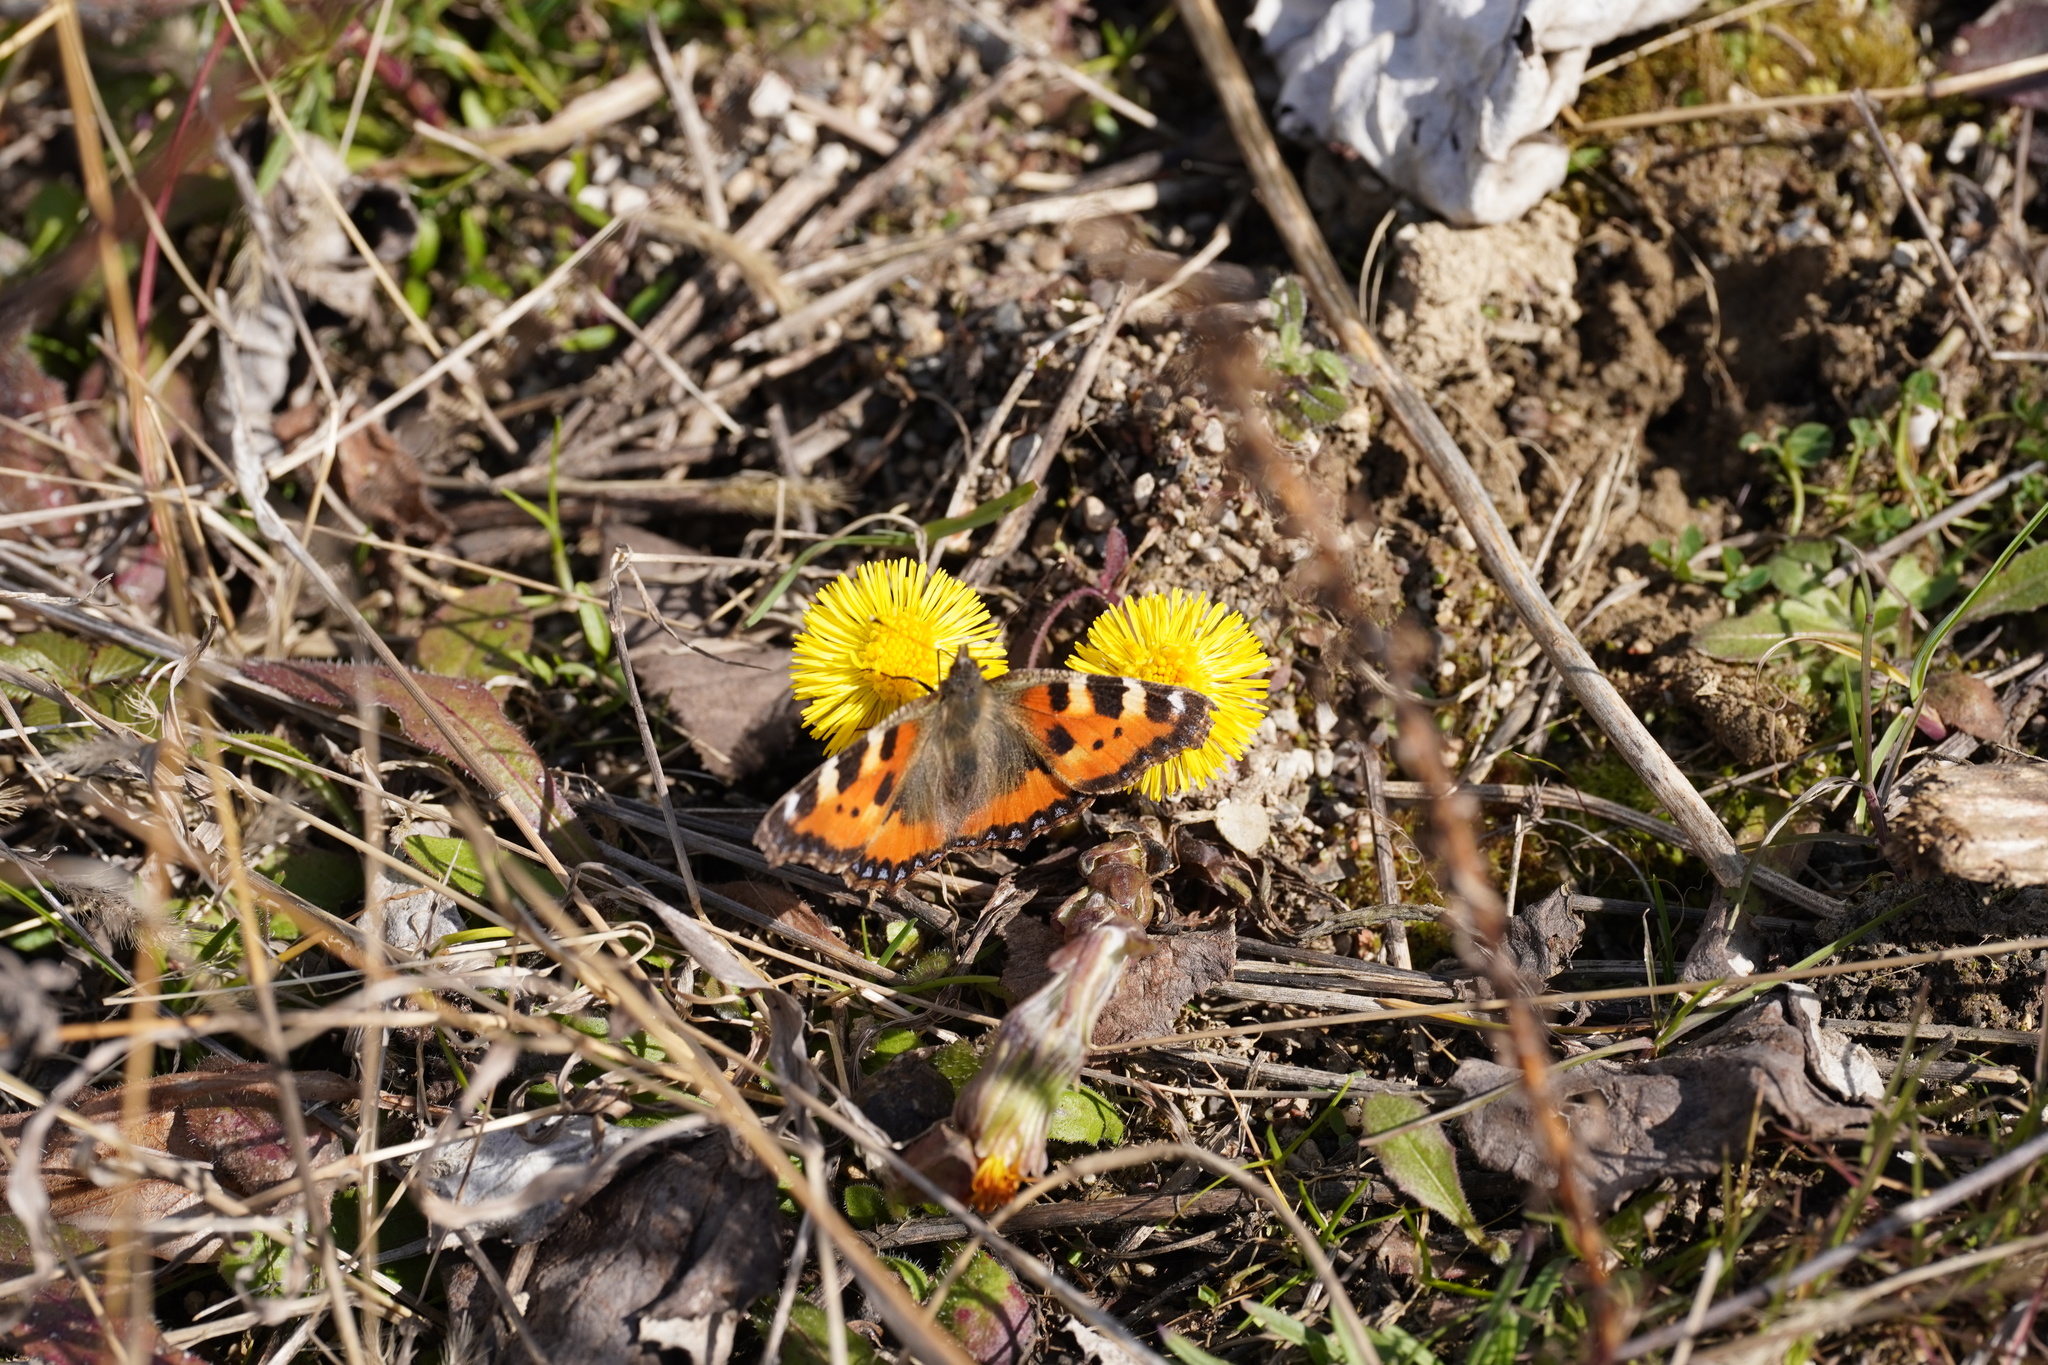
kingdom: Animalia
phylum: Arthropoda
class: Insecta
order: Lepidoptera
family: Nymphalidae
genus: Aglais
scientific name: Aglais urticae
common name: Small tortoiseshell
